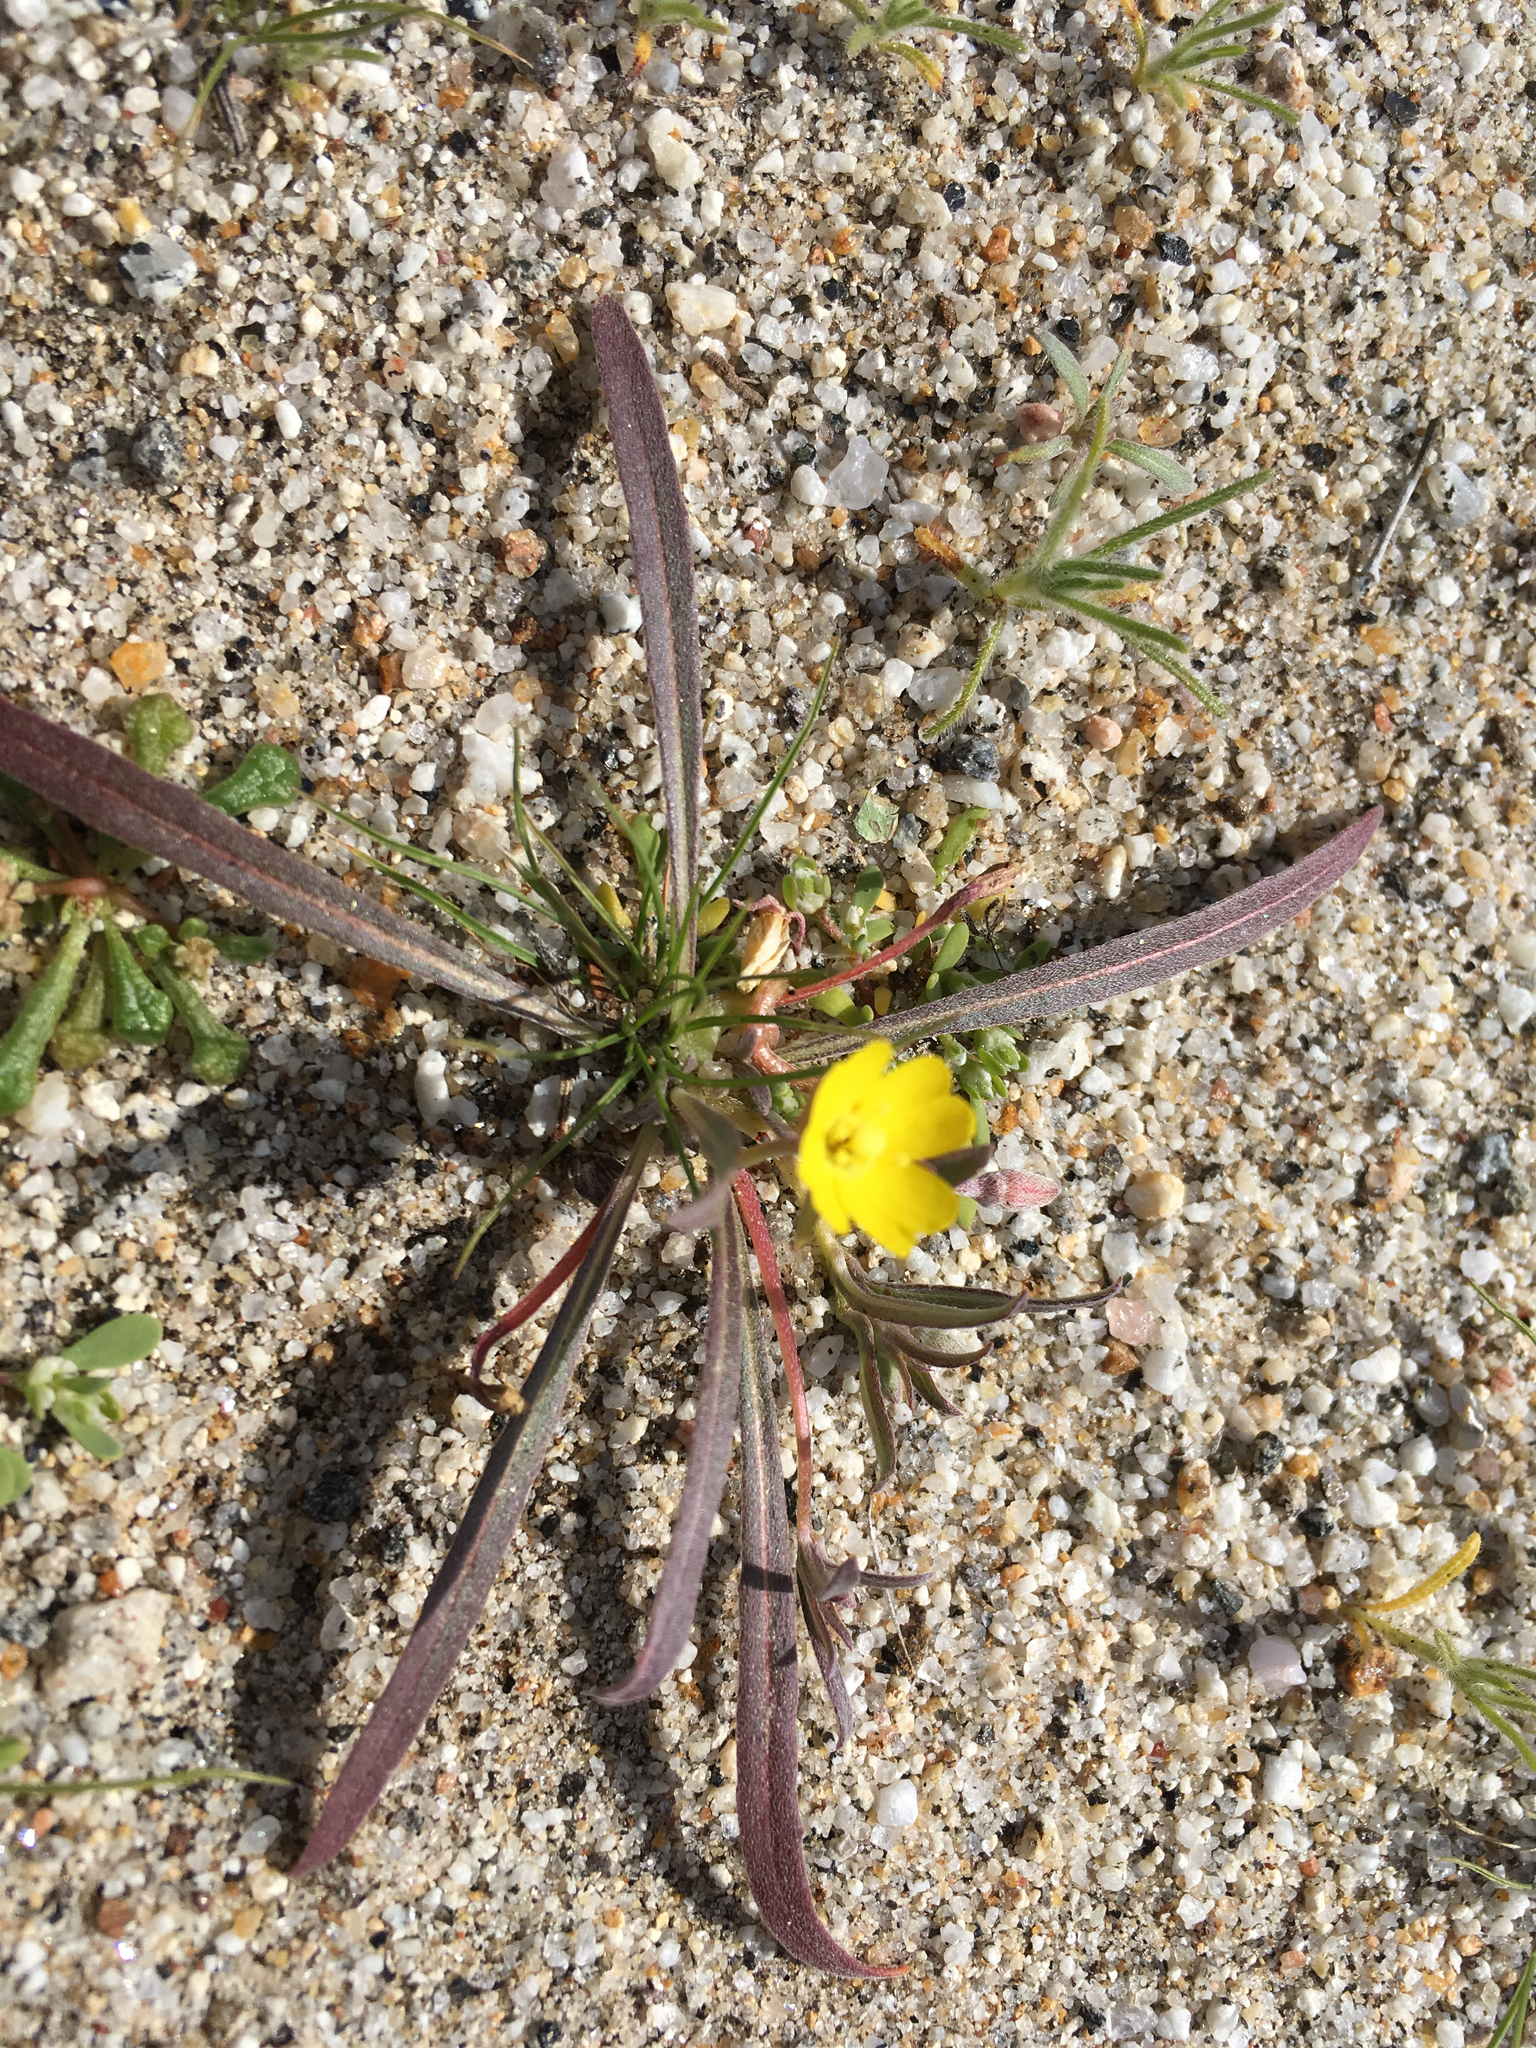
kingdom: Plantae
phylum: Tracheophyta
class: Magnoliopsida
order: Myrtales
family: Onagraceae
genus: Camissoniopsis
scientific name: Camissoniopsis pallida
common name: Paleyellow suncup
